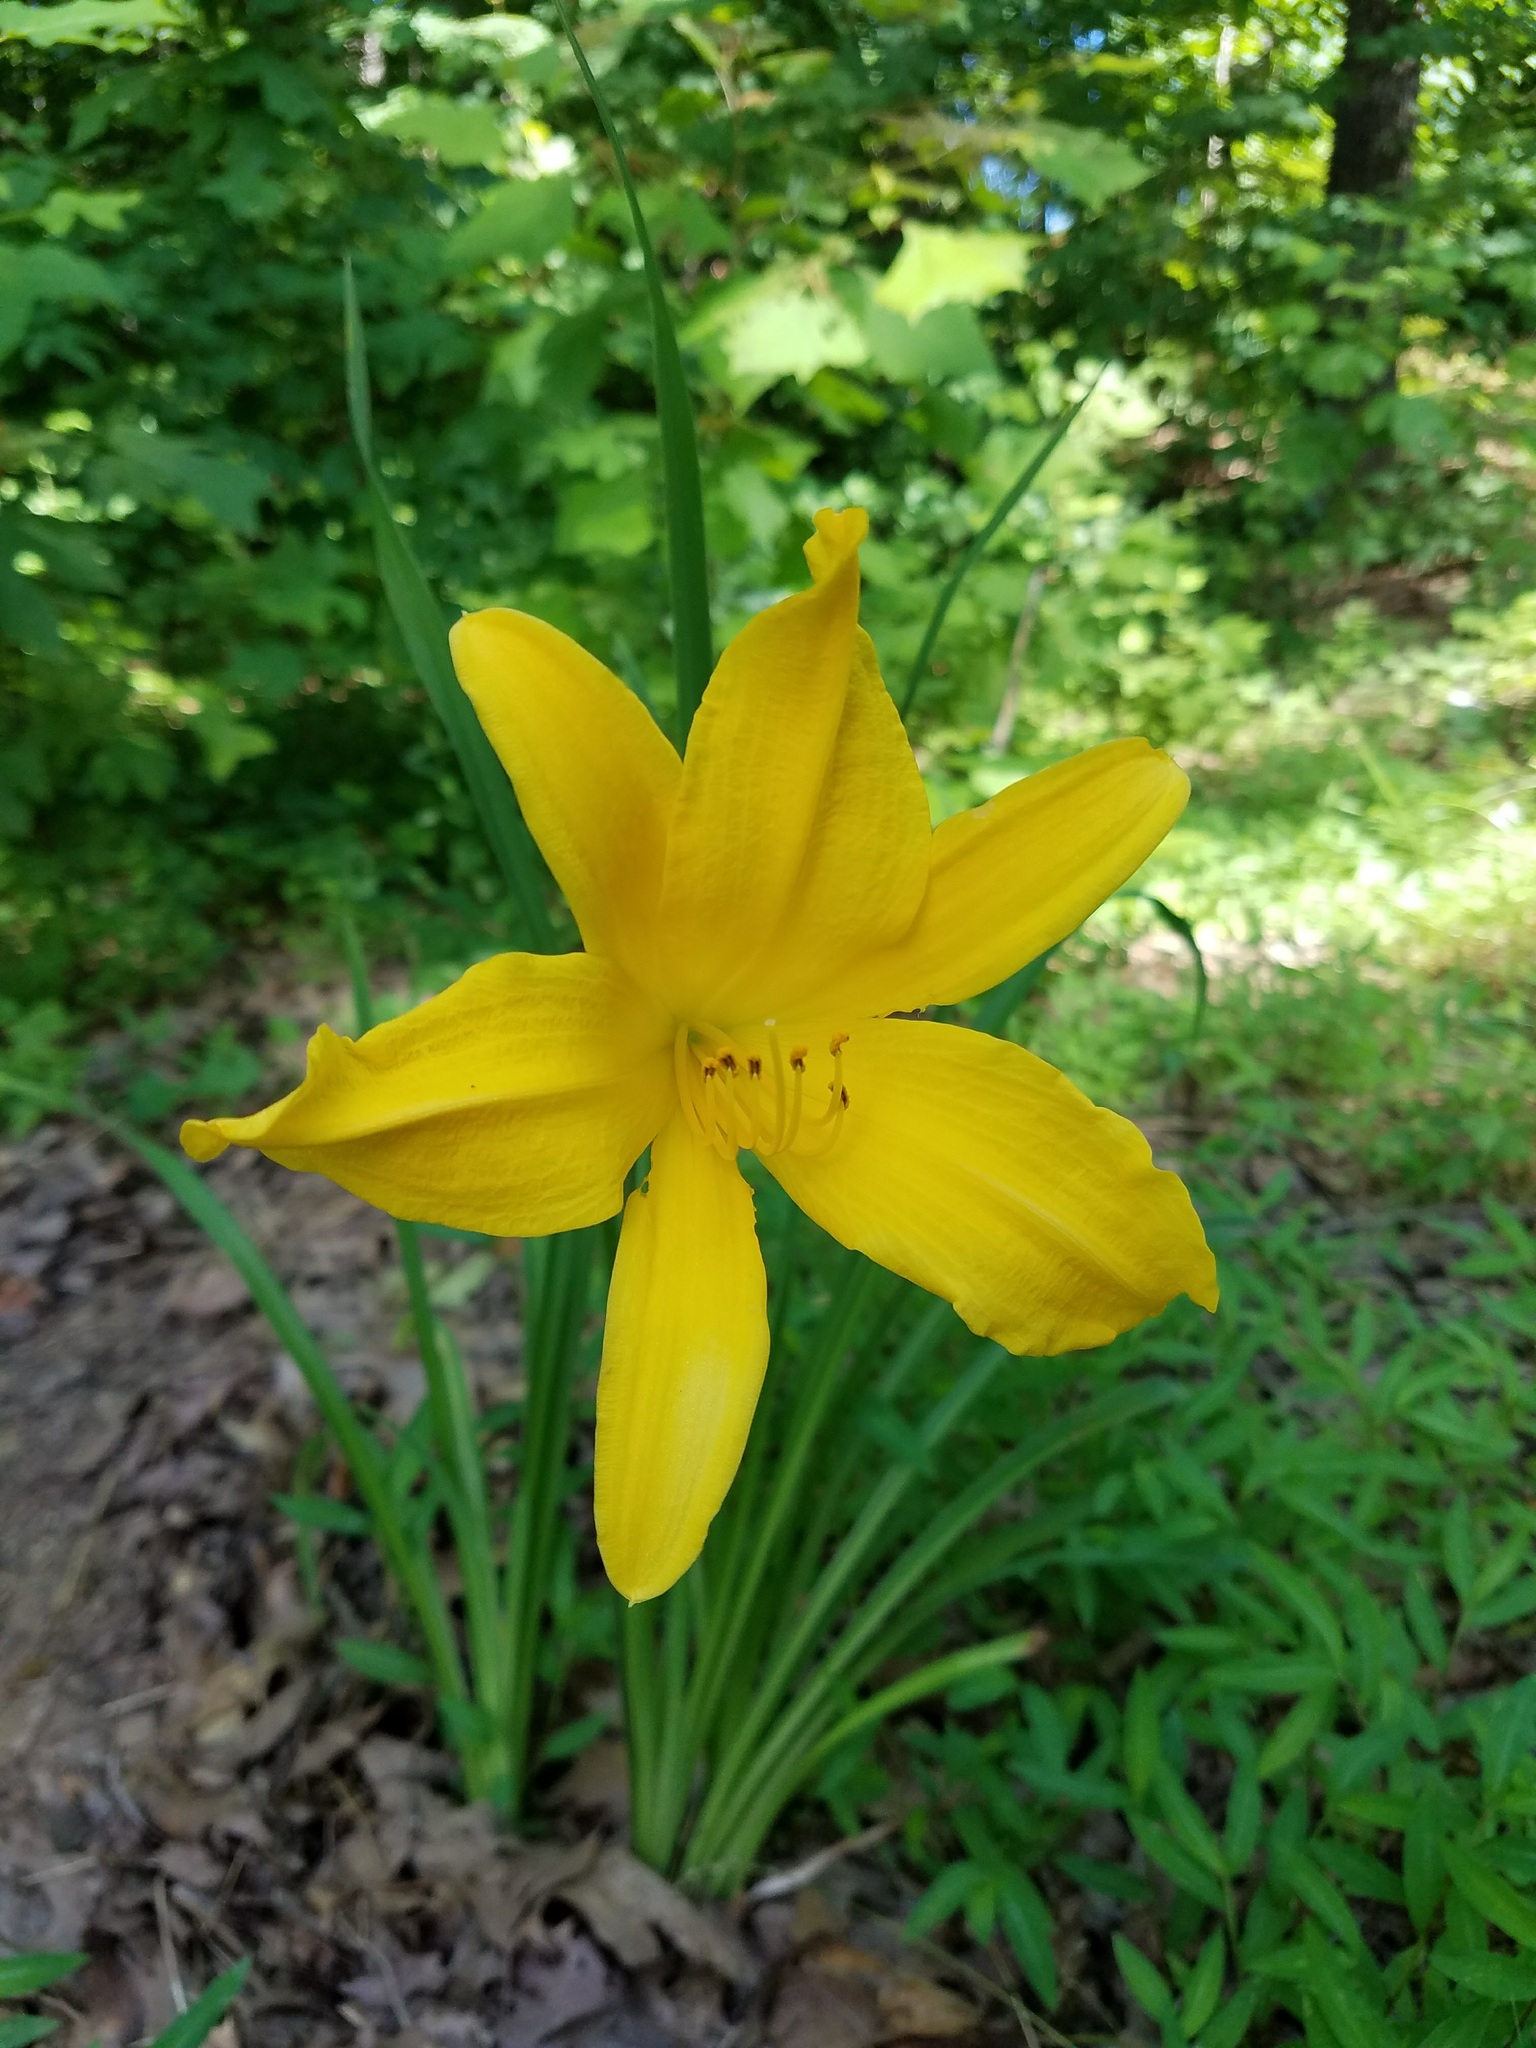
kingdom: Plantae
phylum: Tracheophyta
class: Liliopsida
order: Asparagales
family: Asphodelaceae
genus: Hemerocallis
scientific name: Hemerocallis lilioasphodelus
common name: Yellow day-lily
